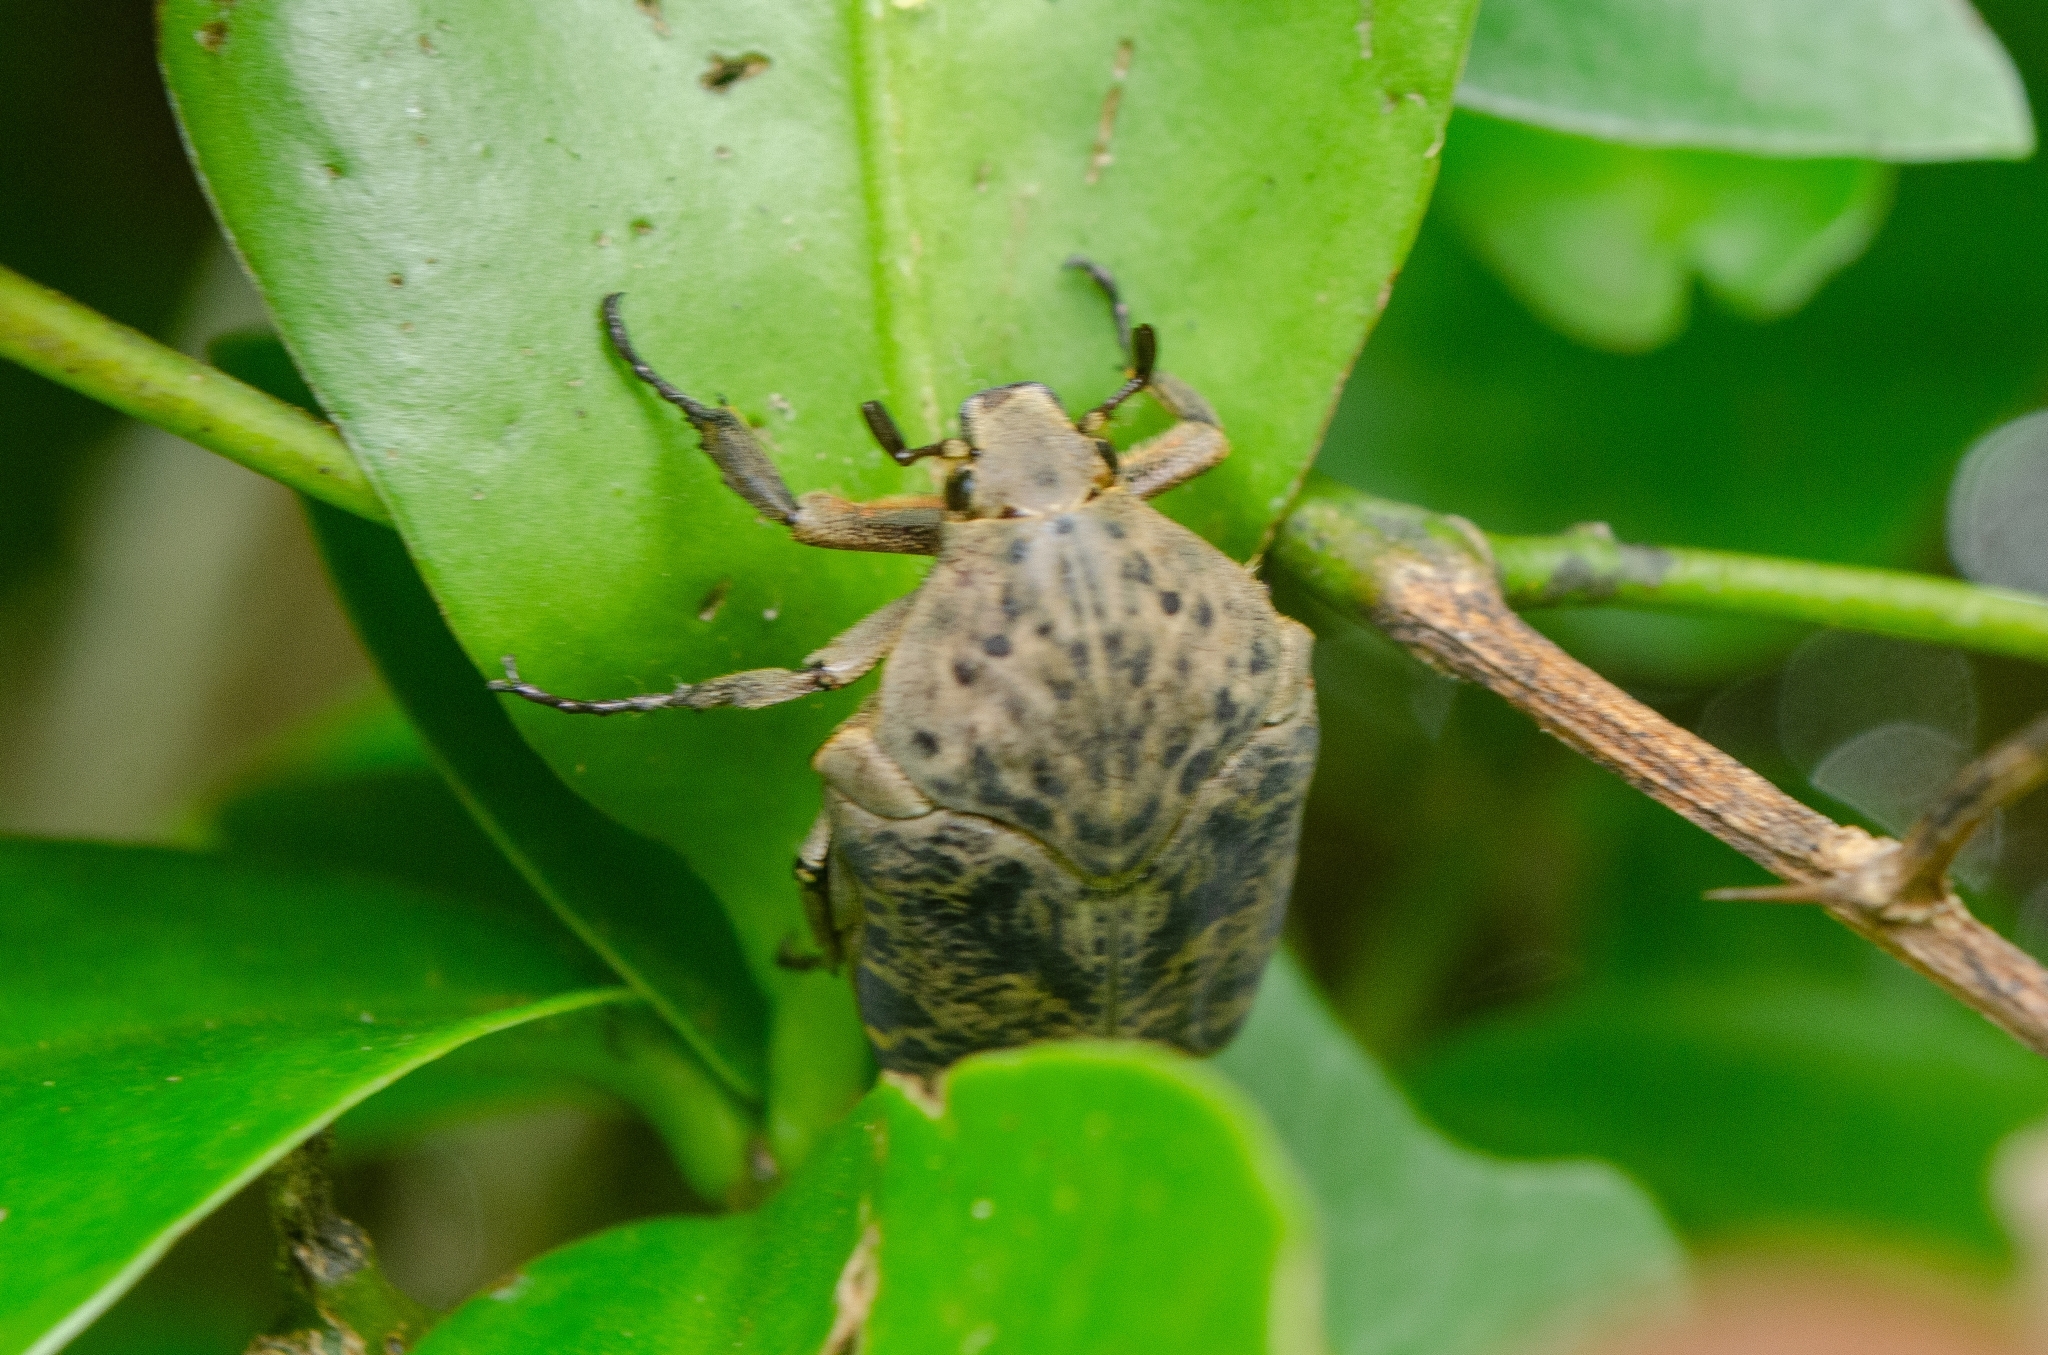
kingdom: Animalia
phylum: Arthropoda
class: Insecta
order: Coleoptera
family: Scarabaeidae
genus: Gymnetis
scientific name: Gymnetis chalcipes
